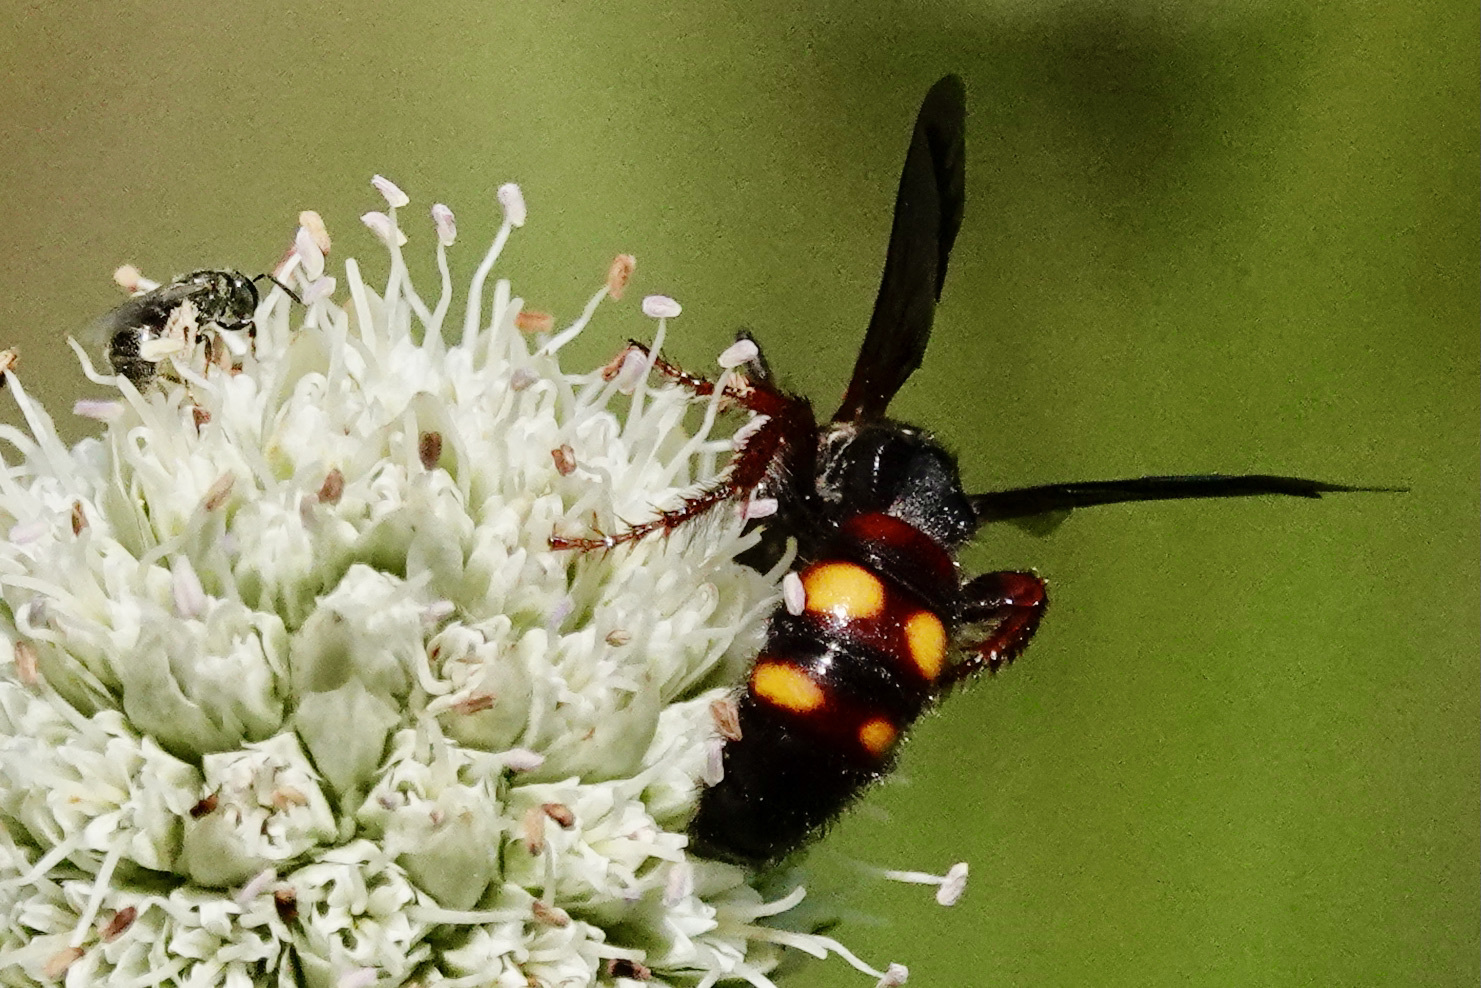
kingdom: Animalia
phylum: Arthropoda
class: Insecta
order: Hymenoptera
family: Scoliidae
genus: Scolia
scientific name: Scolia nobilitata
